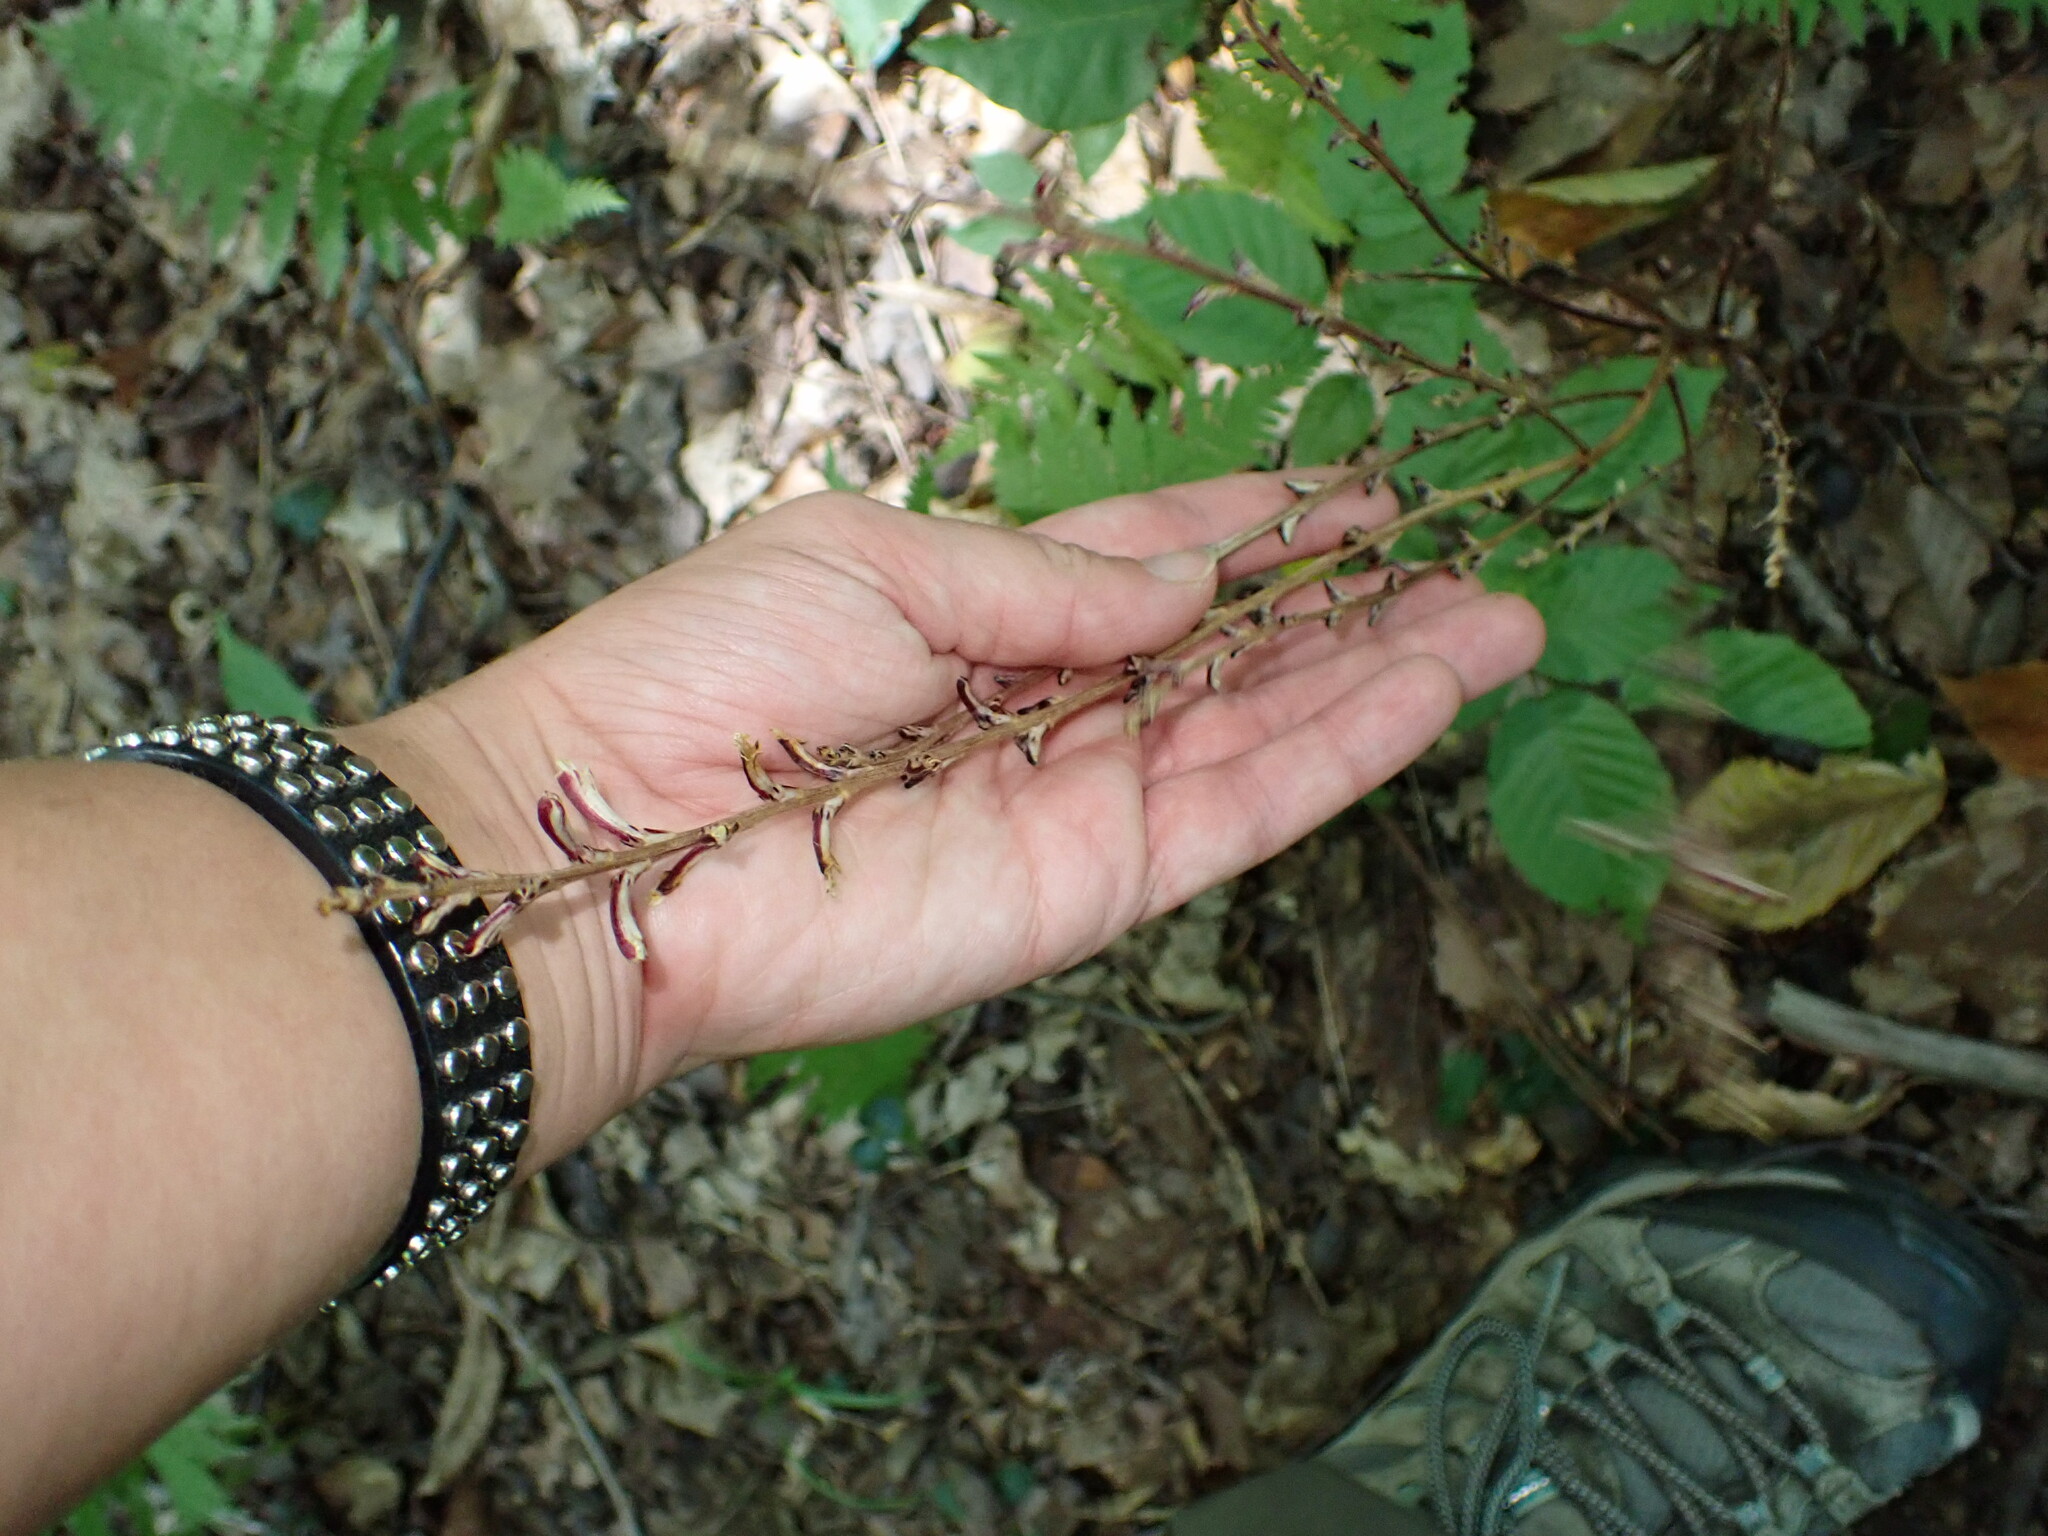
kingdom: Plantae
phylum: Tracheophyta
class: Magnoliopsida
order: Lamiales
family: Orobanchaceae
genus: Epifagus
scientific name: Epifagus virginiana
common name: Beechdrops
